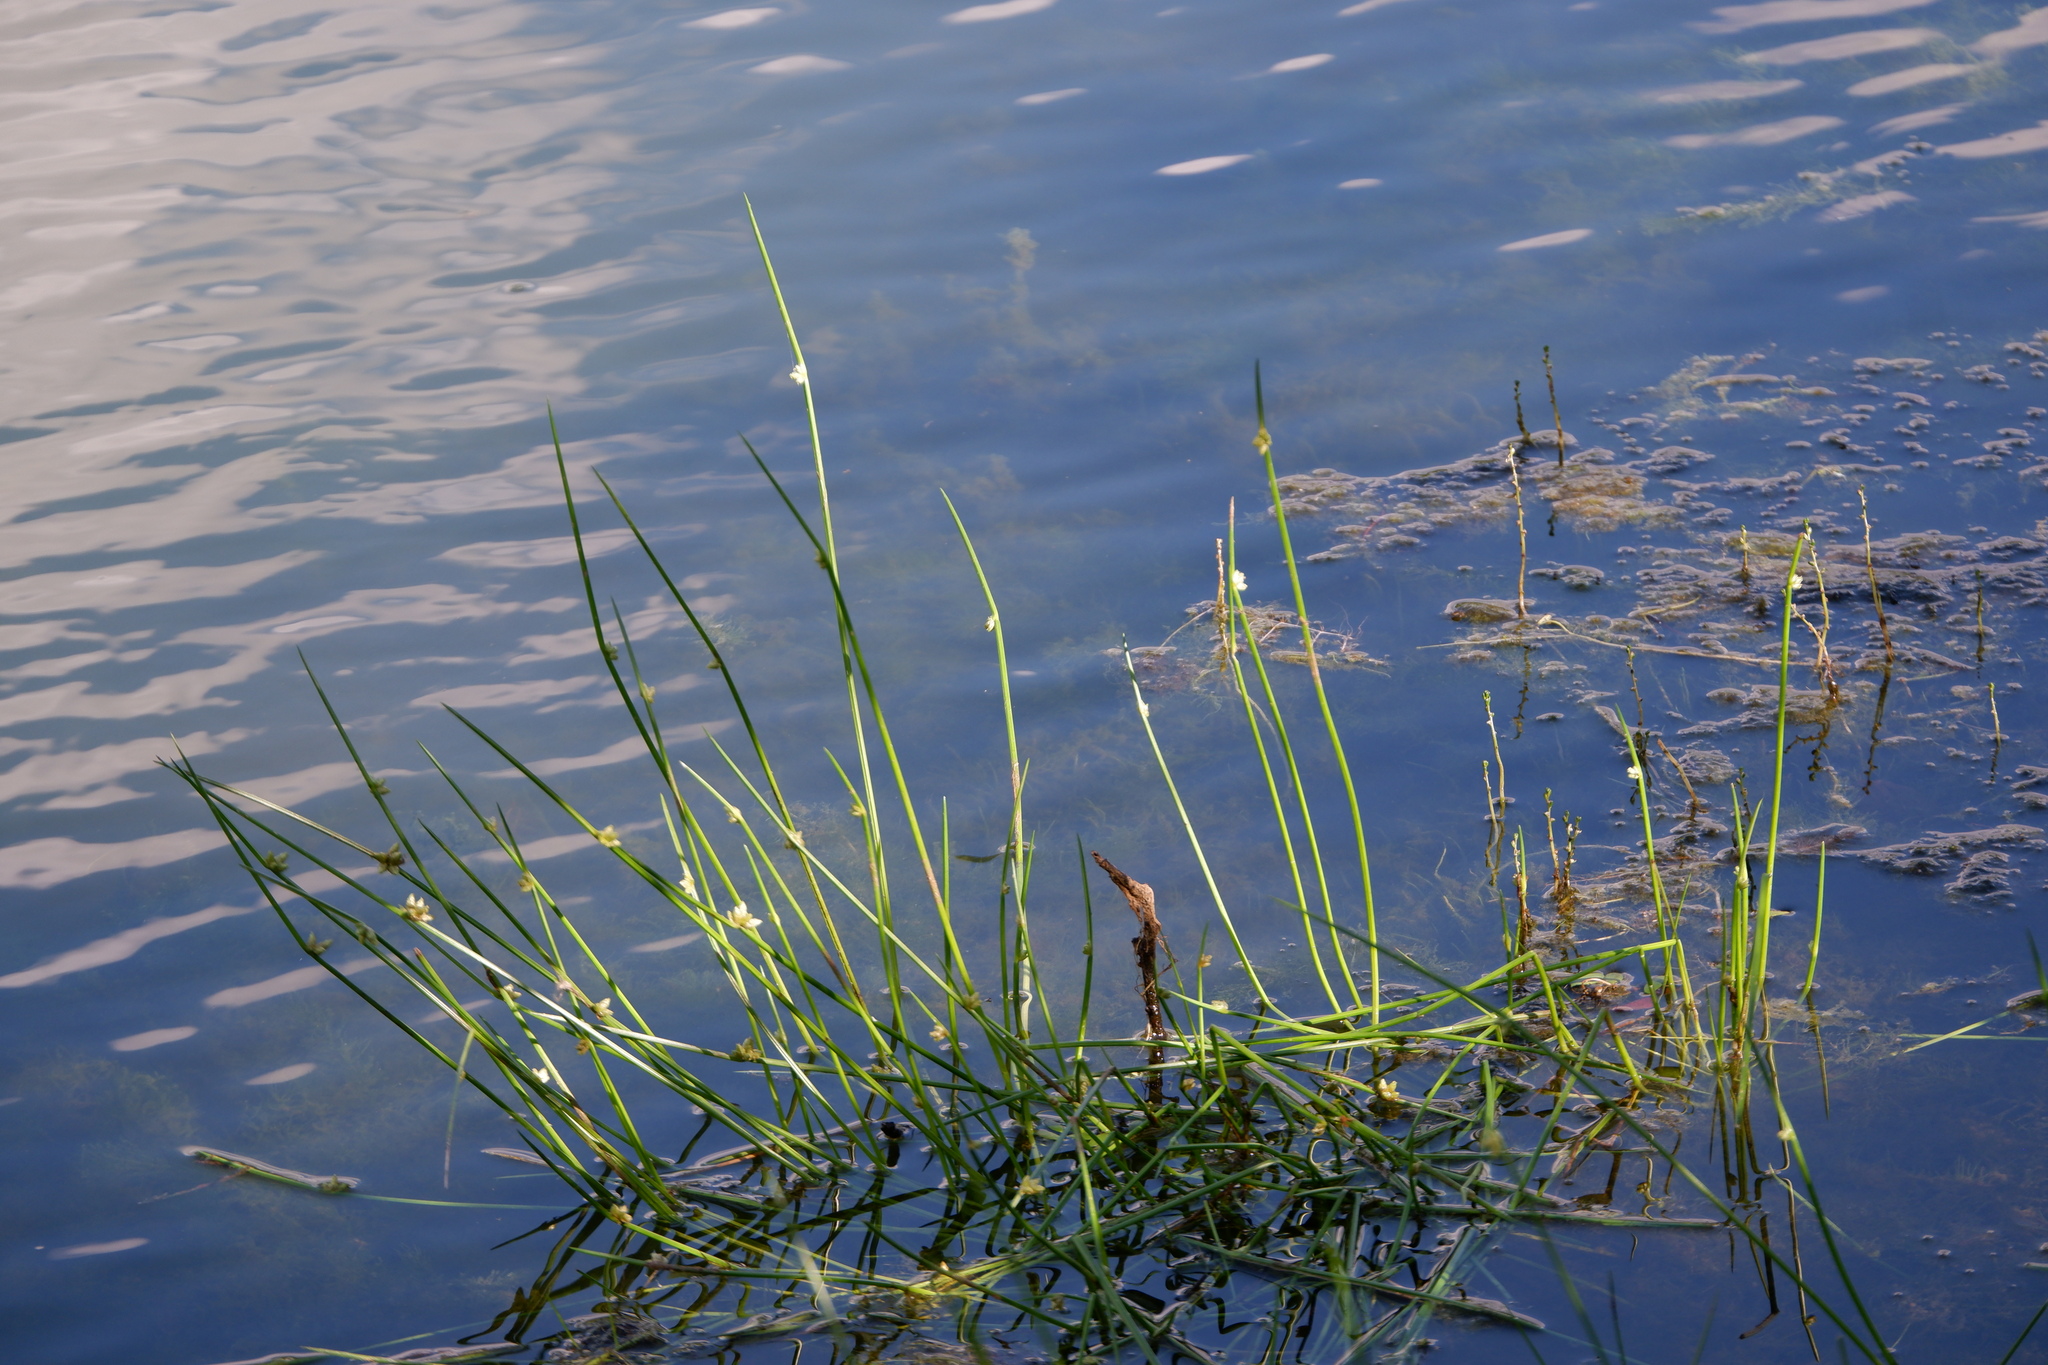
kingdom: Plantae
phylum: Tracheophyta
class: Liliopsida
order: Poales
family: Cyperaceae
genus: Schoenoplectiella
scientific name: Schoenoplectiella purshiana
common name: Weak-stalked bulrush
